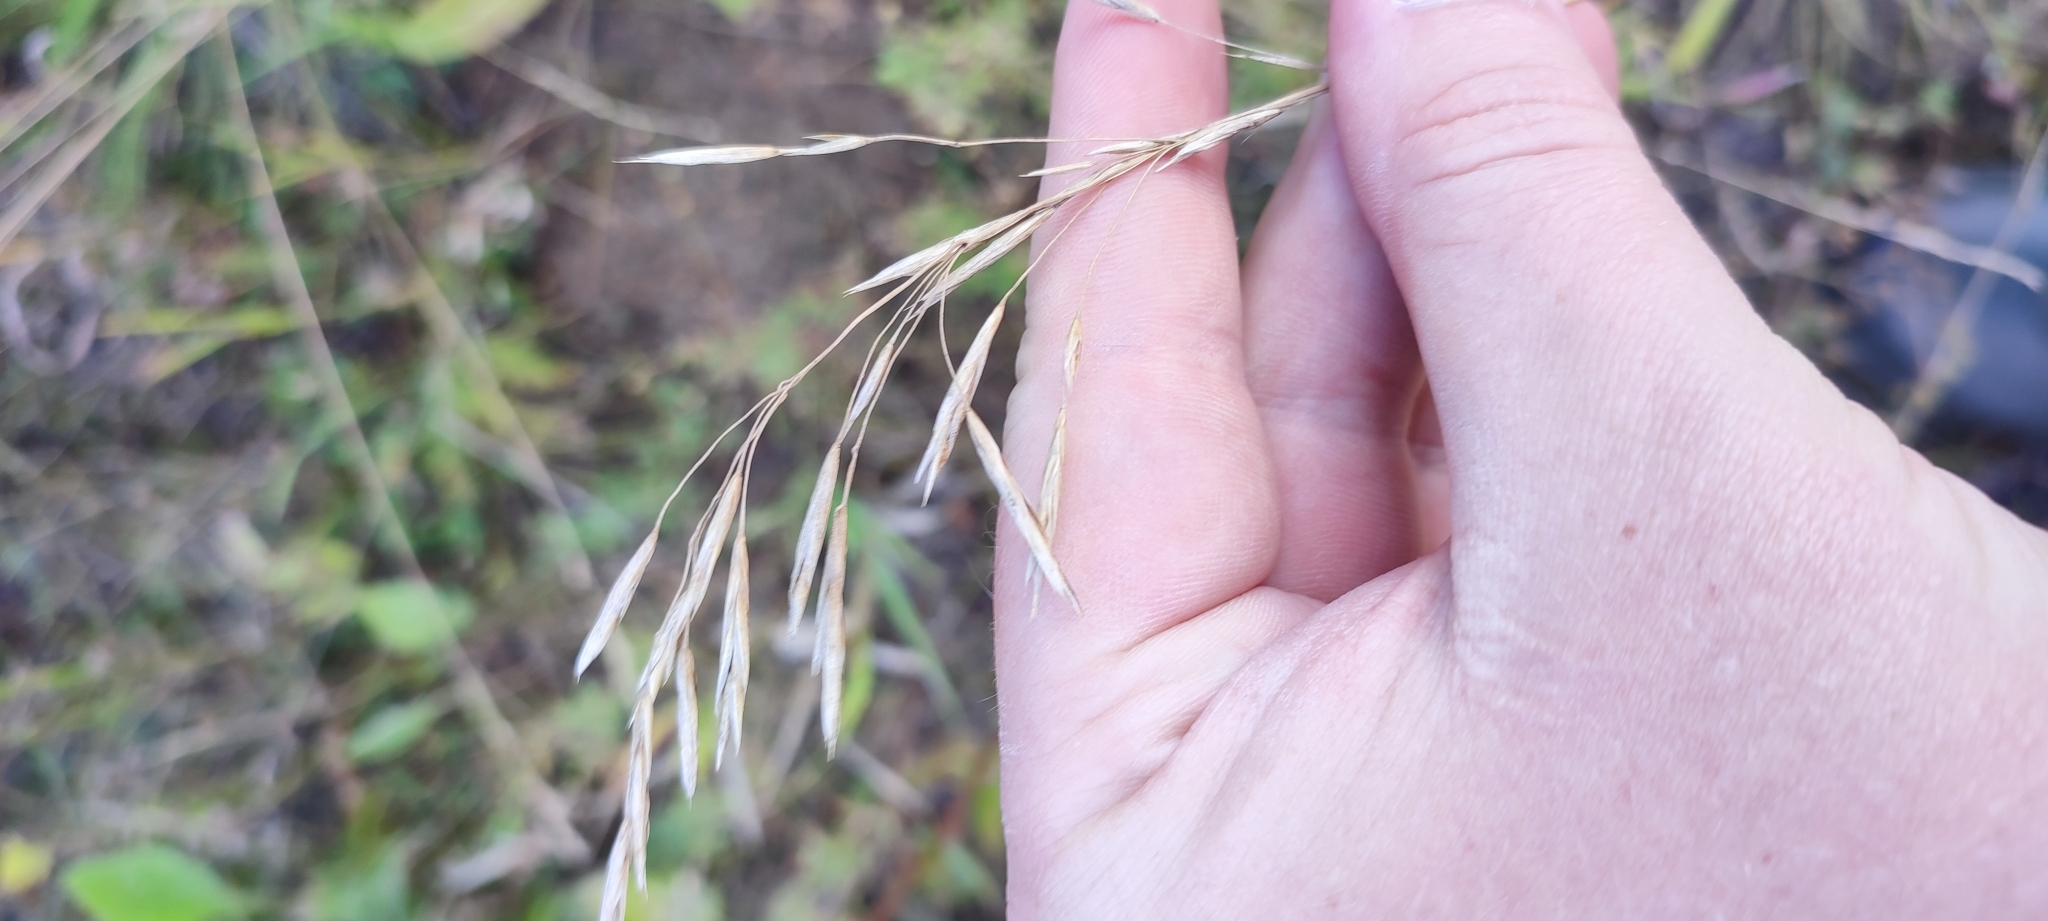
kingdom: Plantae
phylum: Tracheophyta
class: Liliopsida
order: Poales
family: Poaceae
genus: Bromus
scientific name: Bromus inermis
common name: Smooth brome
